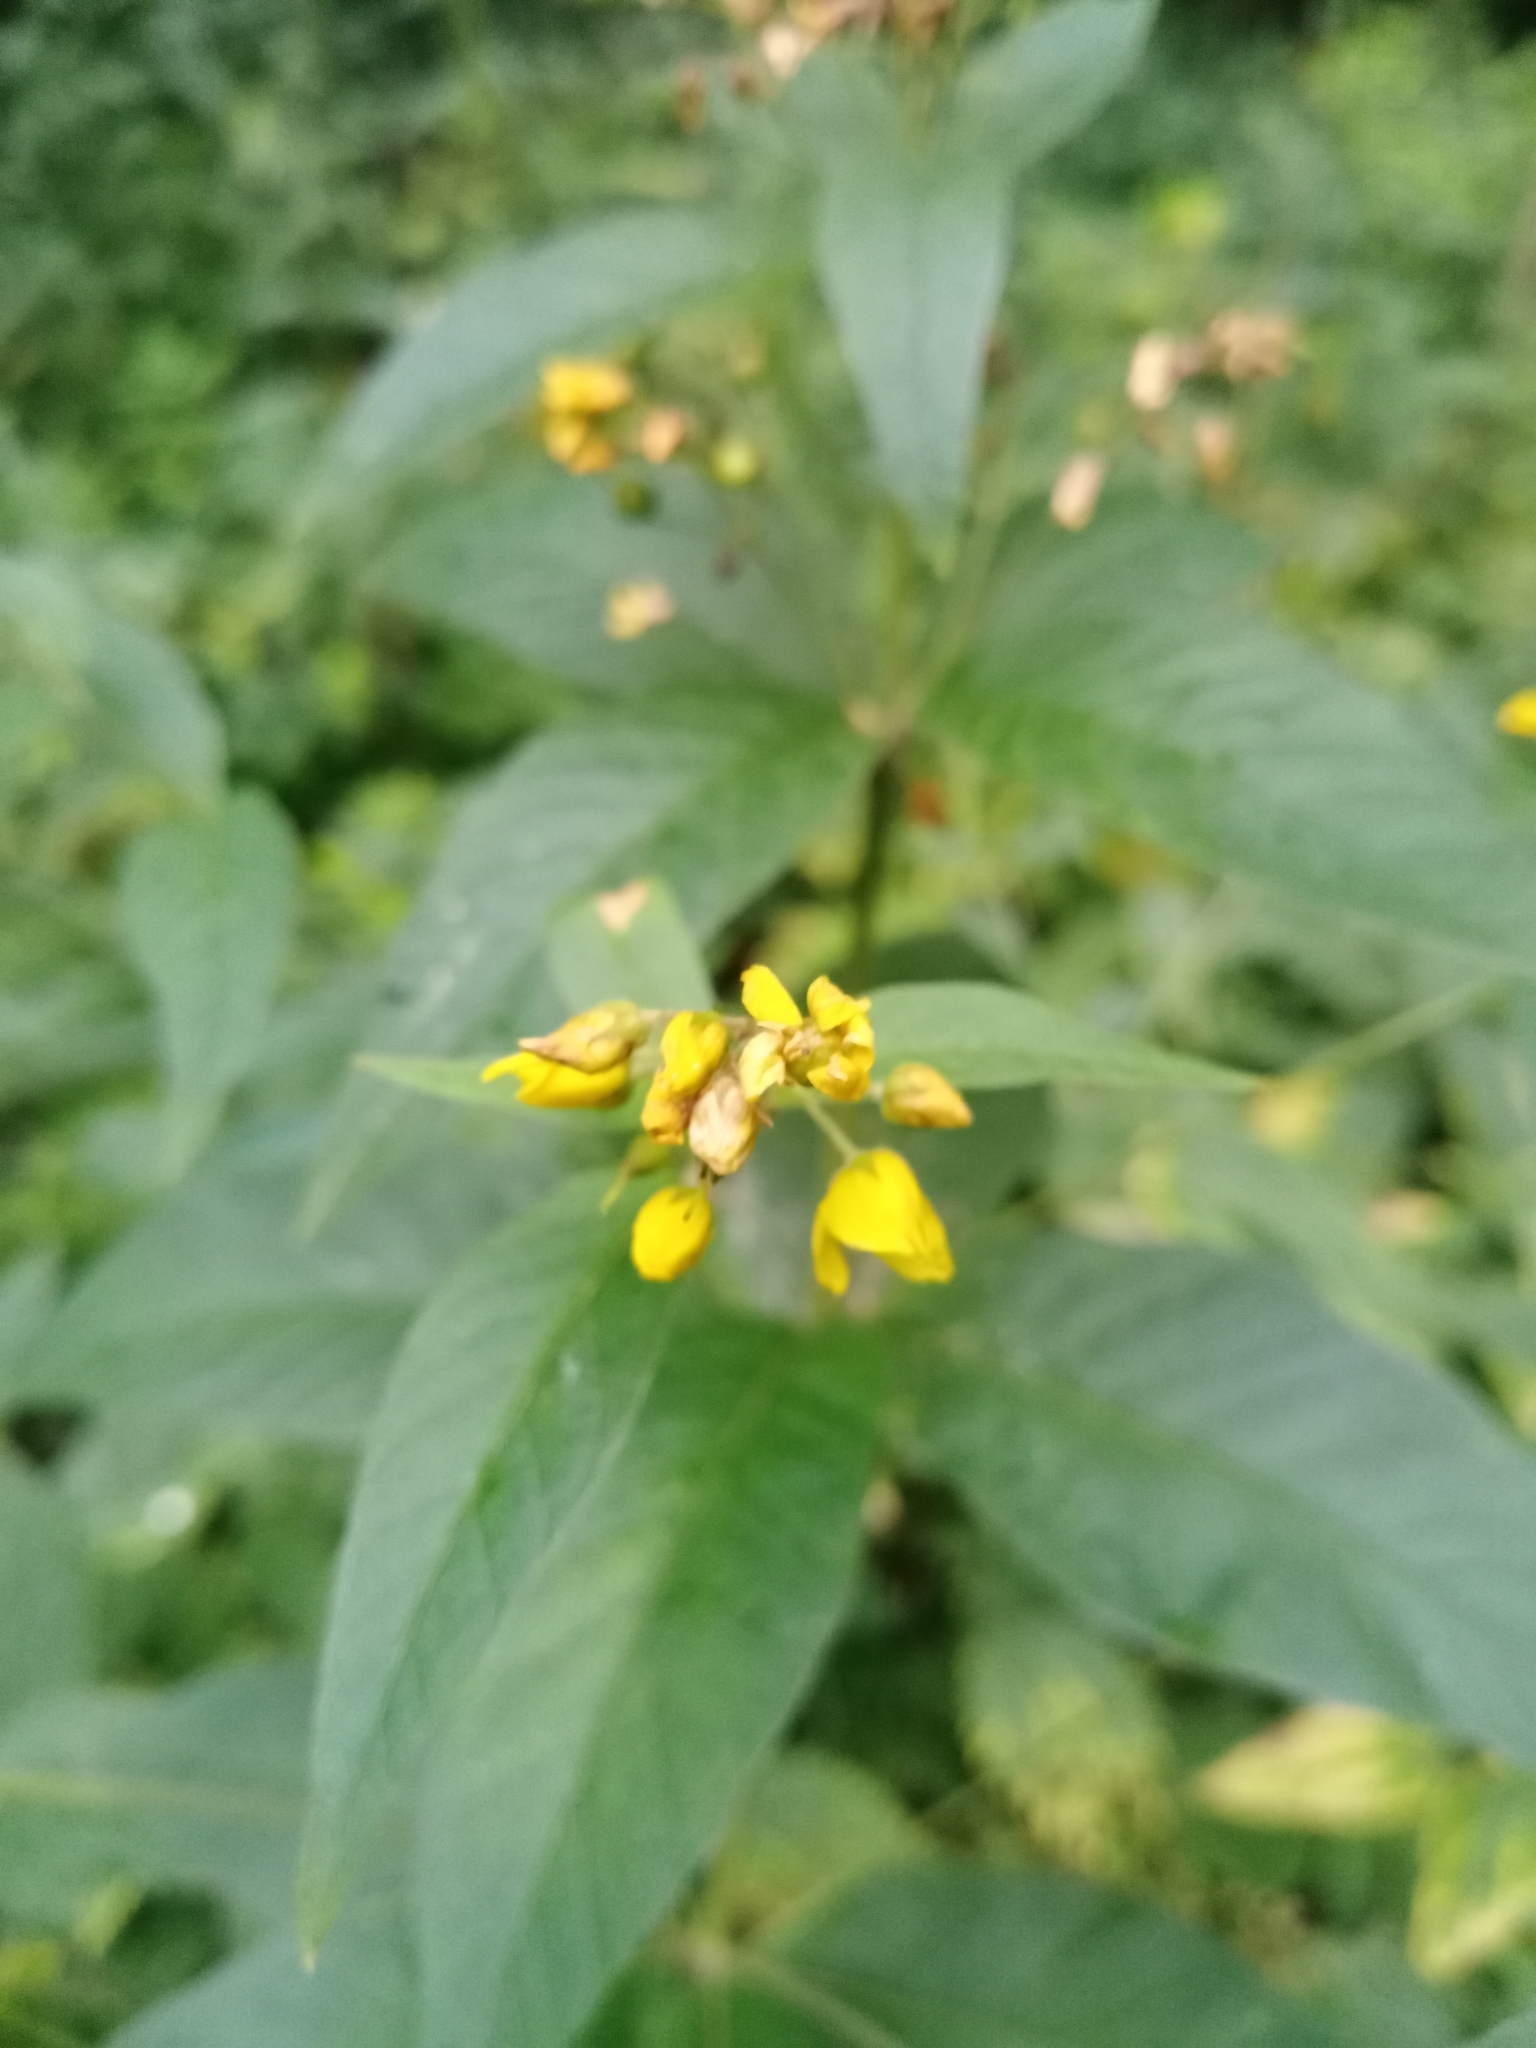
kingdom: Plantae
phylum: Tracheophyta
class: Magnoliopsida
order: Ericales
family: Primulaceae
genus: Lysimachia
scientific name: Lysimachia vulgaris
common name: Yellow loosestrife
